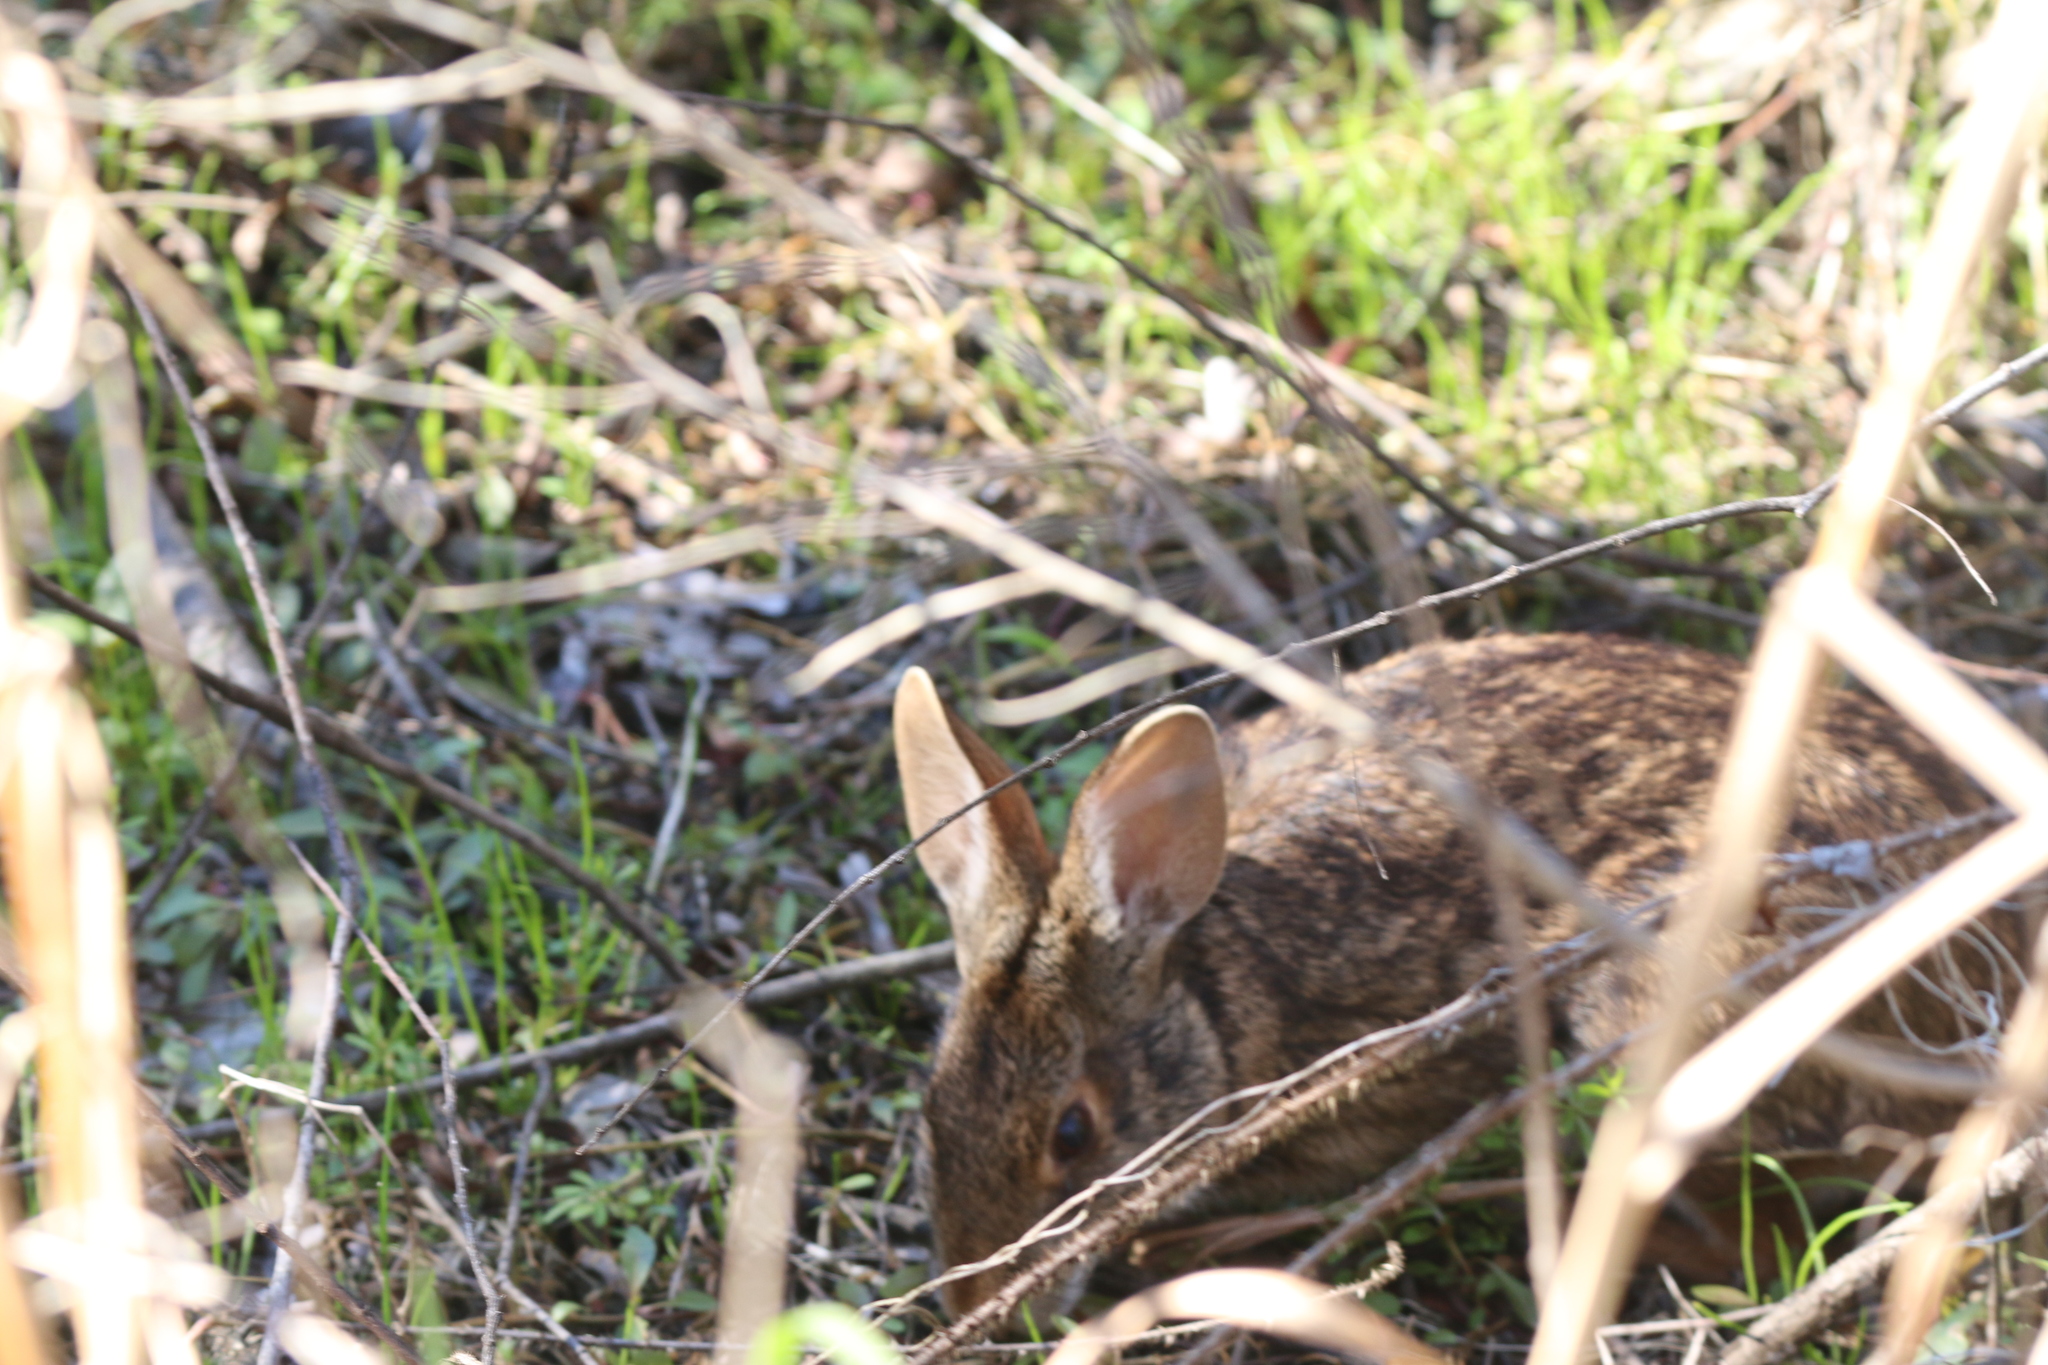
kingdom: Animalia
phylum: Chordata
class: Mammalia
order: Lagomorpha
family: Leporidae
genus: Sylvilagus
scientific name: Sylvilagus aquaticus
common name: Swamp rabbit
